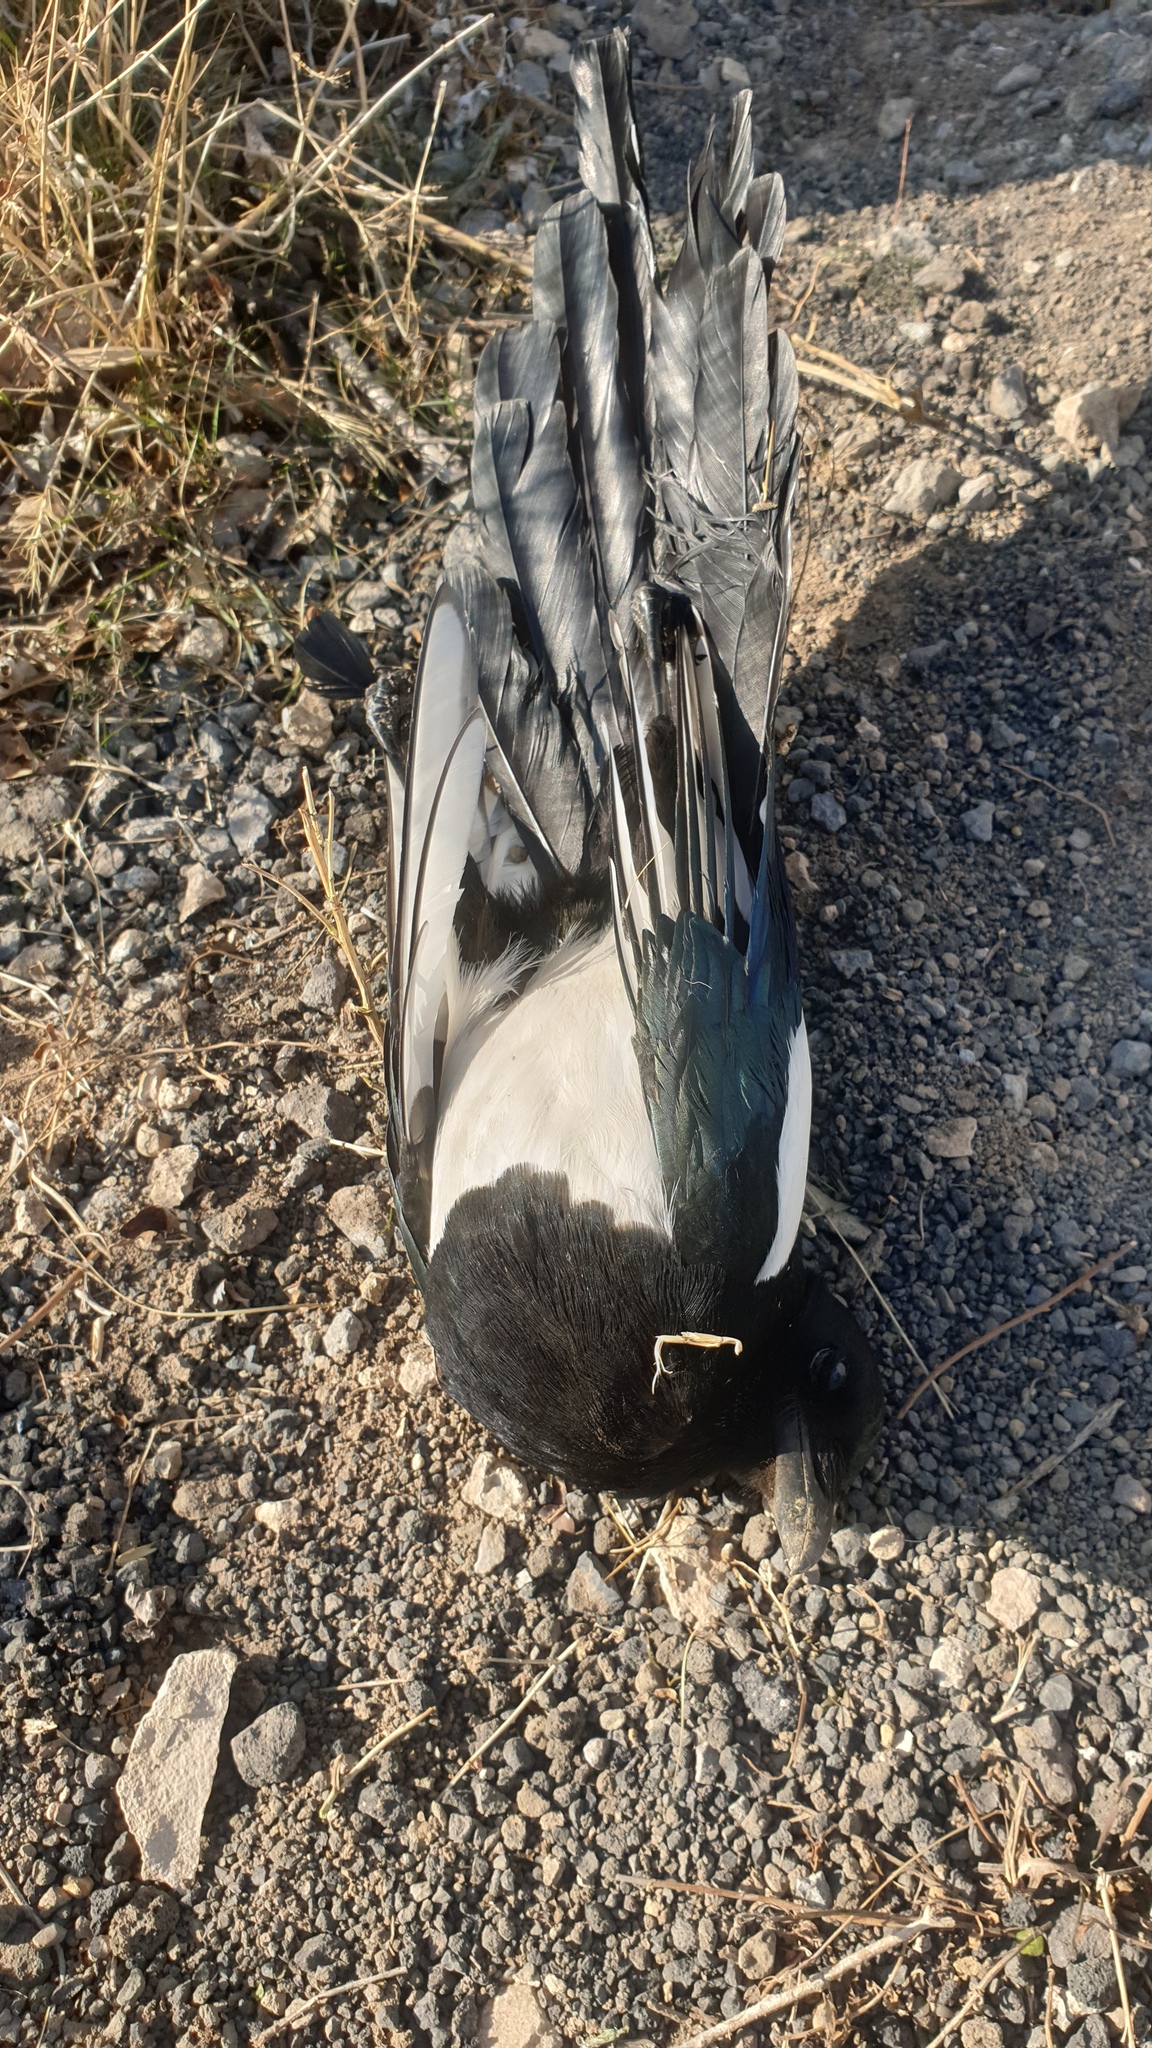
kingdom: Animalia
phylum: Chordata
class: Aves
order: Passeriformes
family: Corvidae
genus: Pica
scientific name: Pica pica
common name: Eurasian magpie
